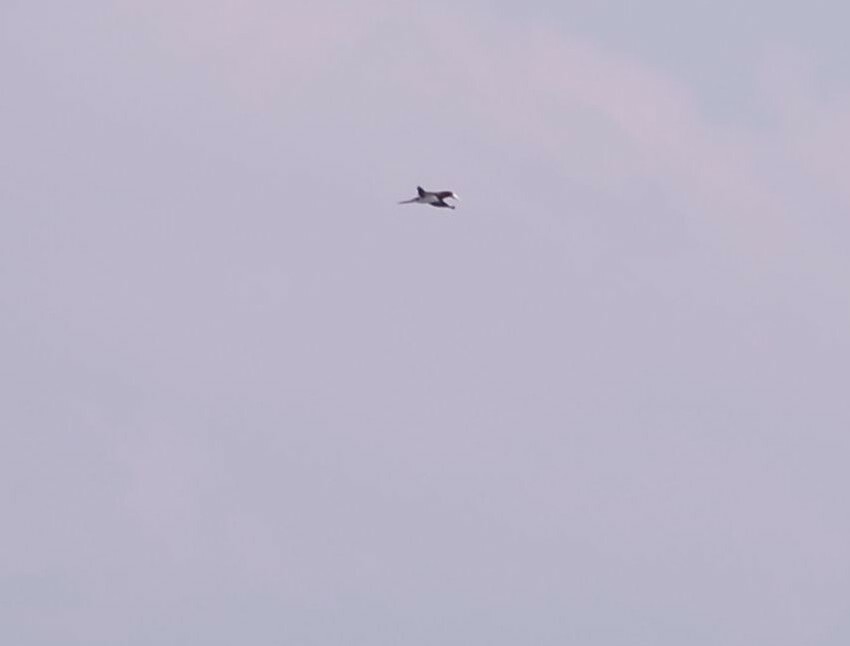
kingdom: Animalia
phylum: Chordata
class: Aves
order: Suliformes
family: Sulidae
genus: Sula
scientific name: Sula leucogaster
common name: Brown booby
